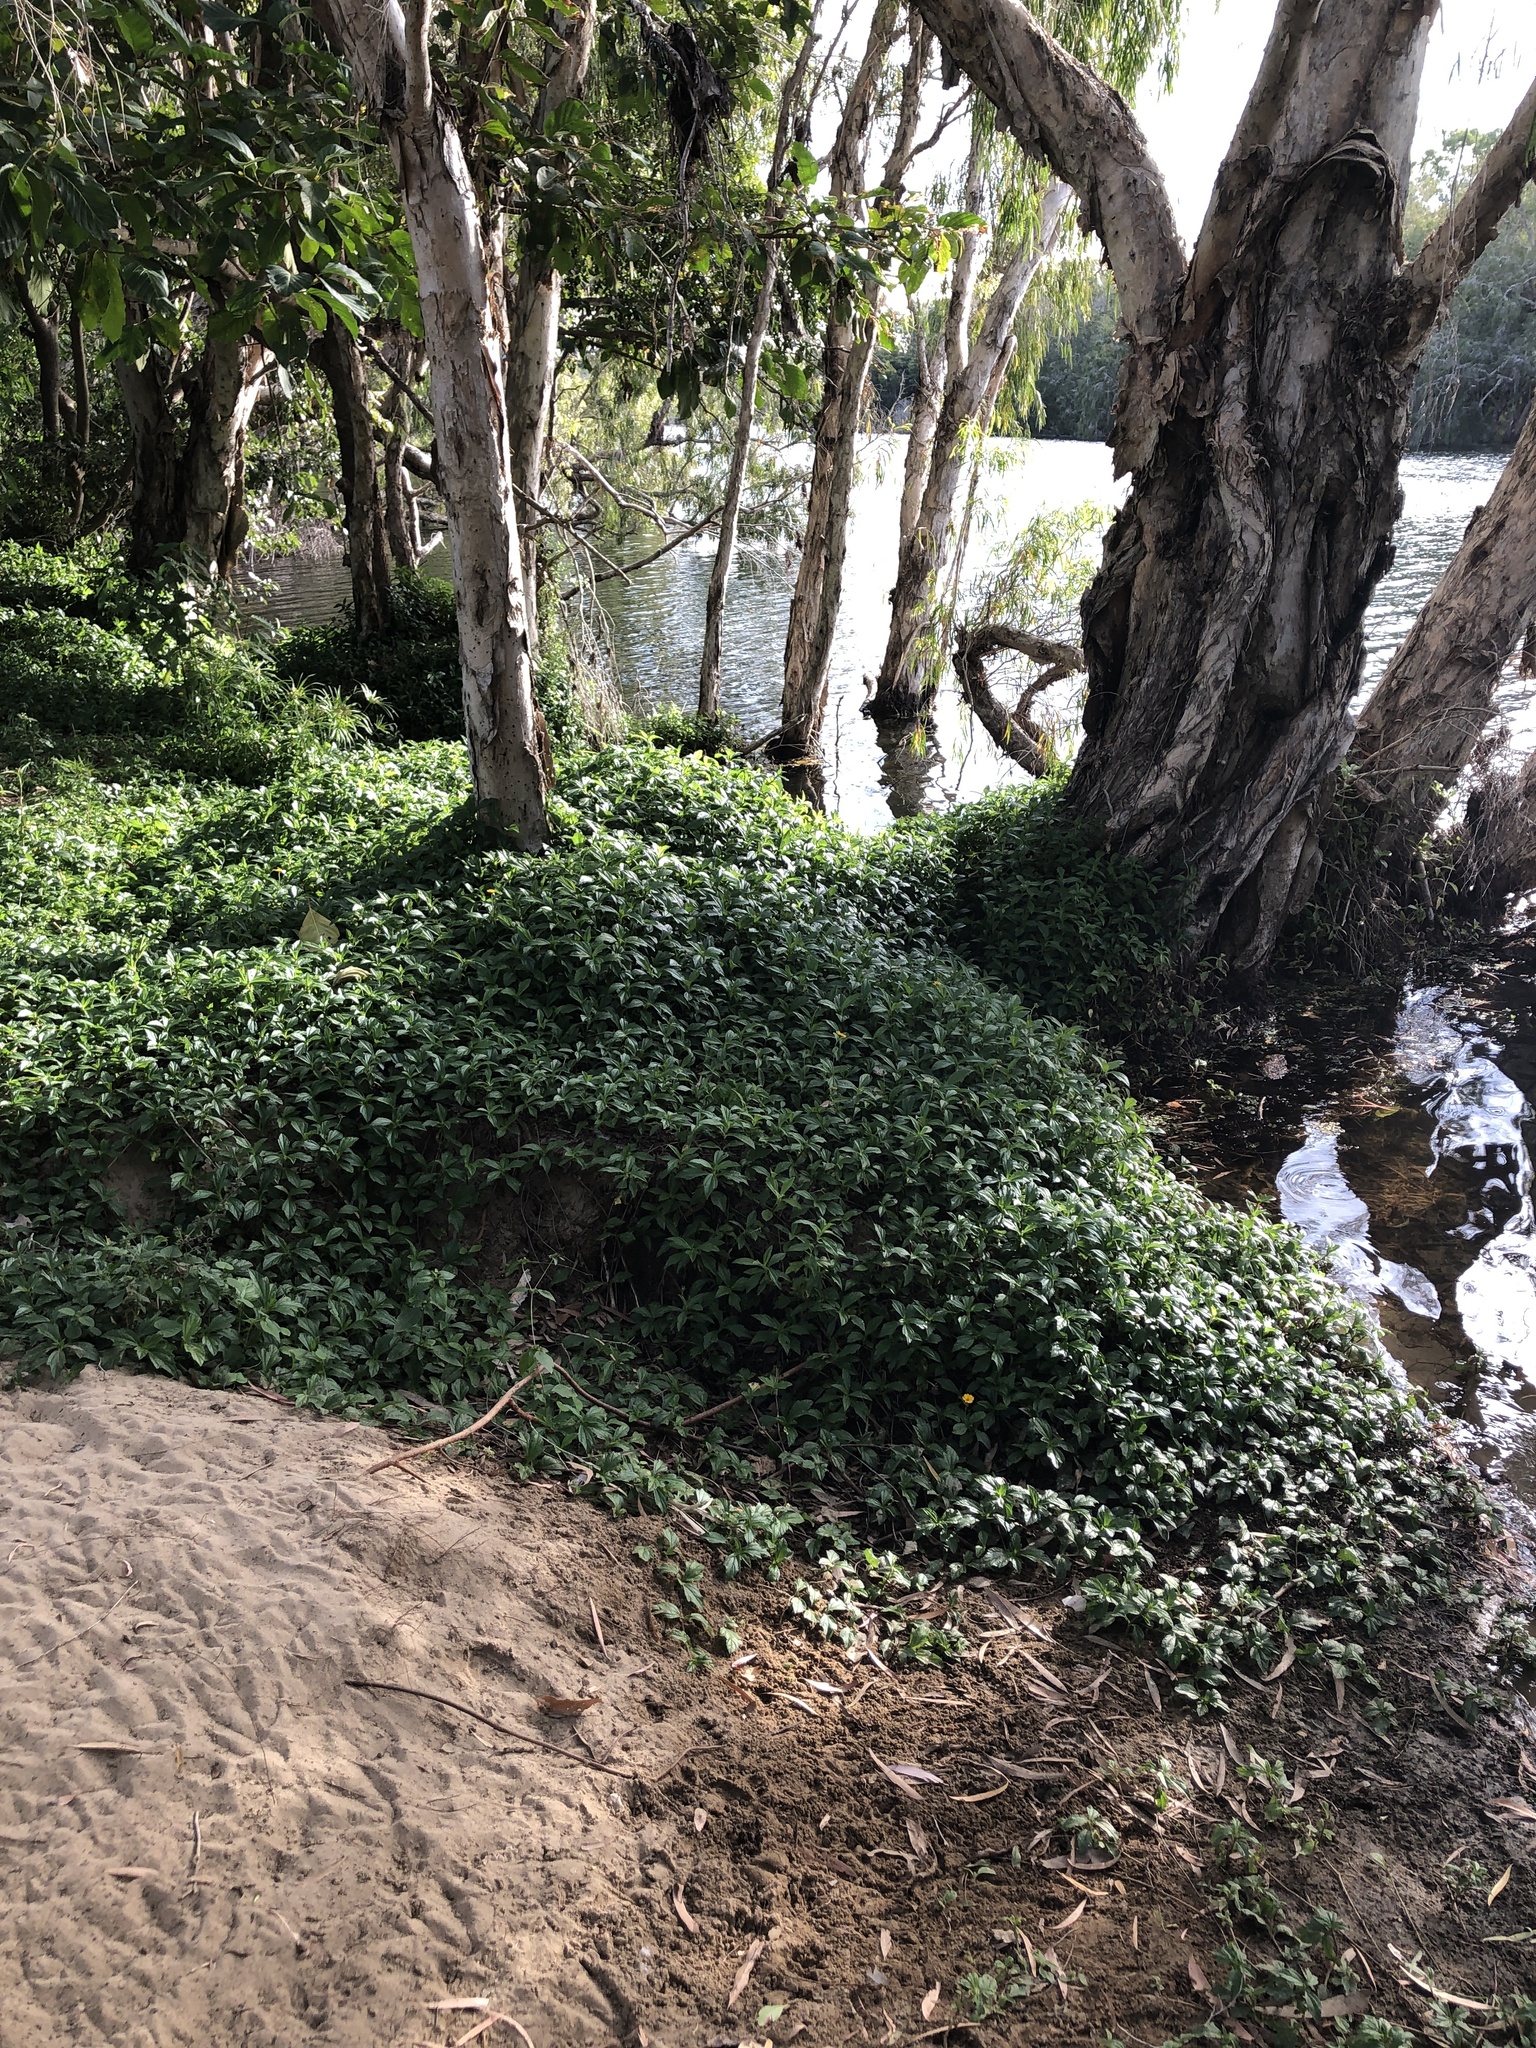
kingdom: Plantae
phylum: Tracheophyta
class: Magnoliopsida
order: Asterales
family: Asteraceae
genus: Sphagneticola
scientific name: Sphagneticola trilobata
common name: Bay biscayne creeping-oxeye
